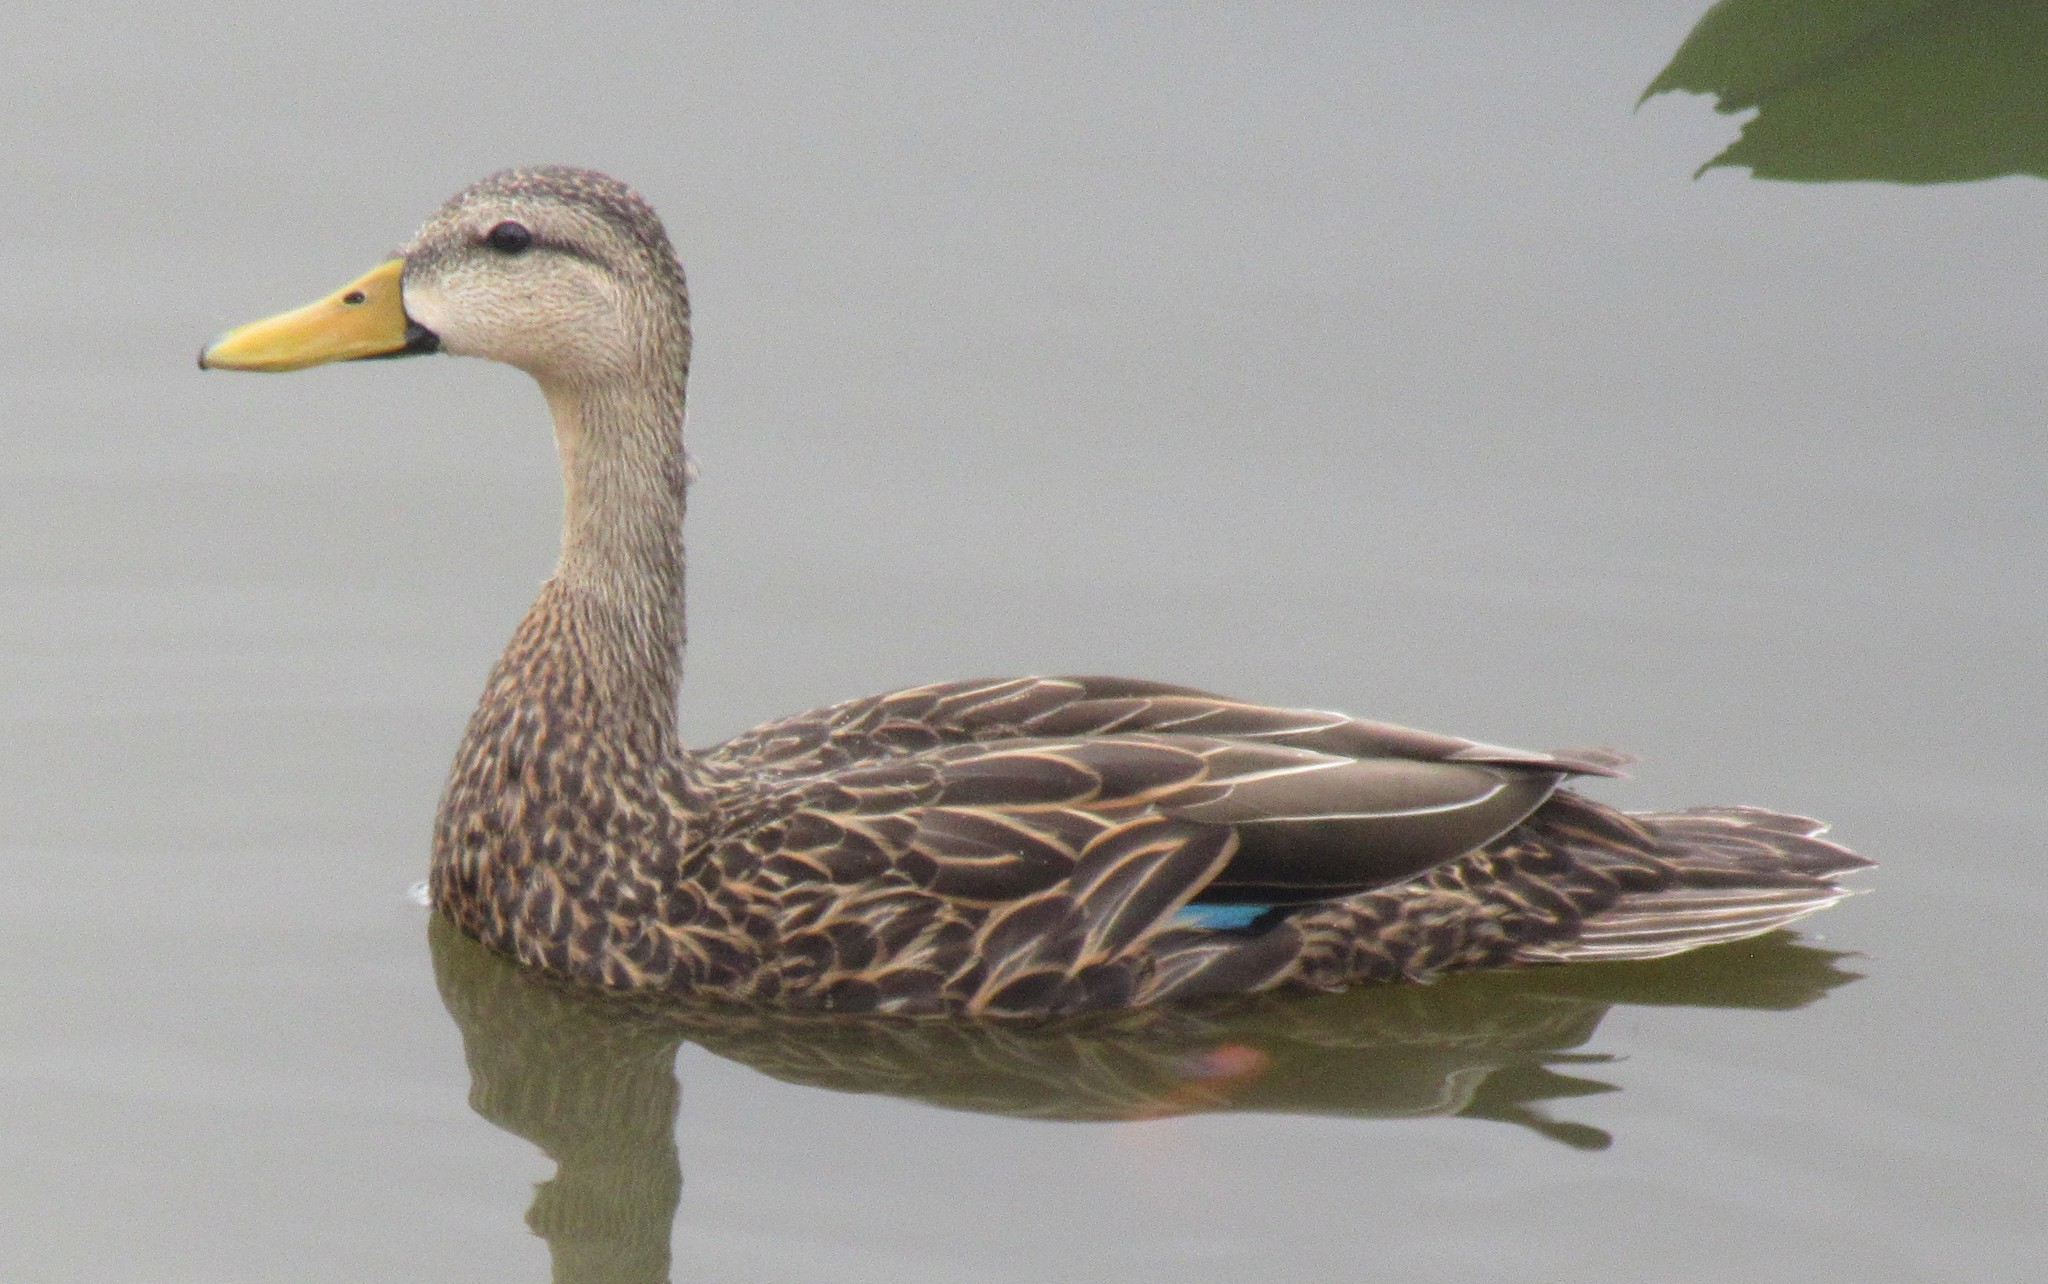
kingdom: Animalia
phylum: Chordata
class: Aves
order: Anseriformes
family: Anatidae
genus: Anas
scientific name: Anas fulvigula
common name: Mottled duck
